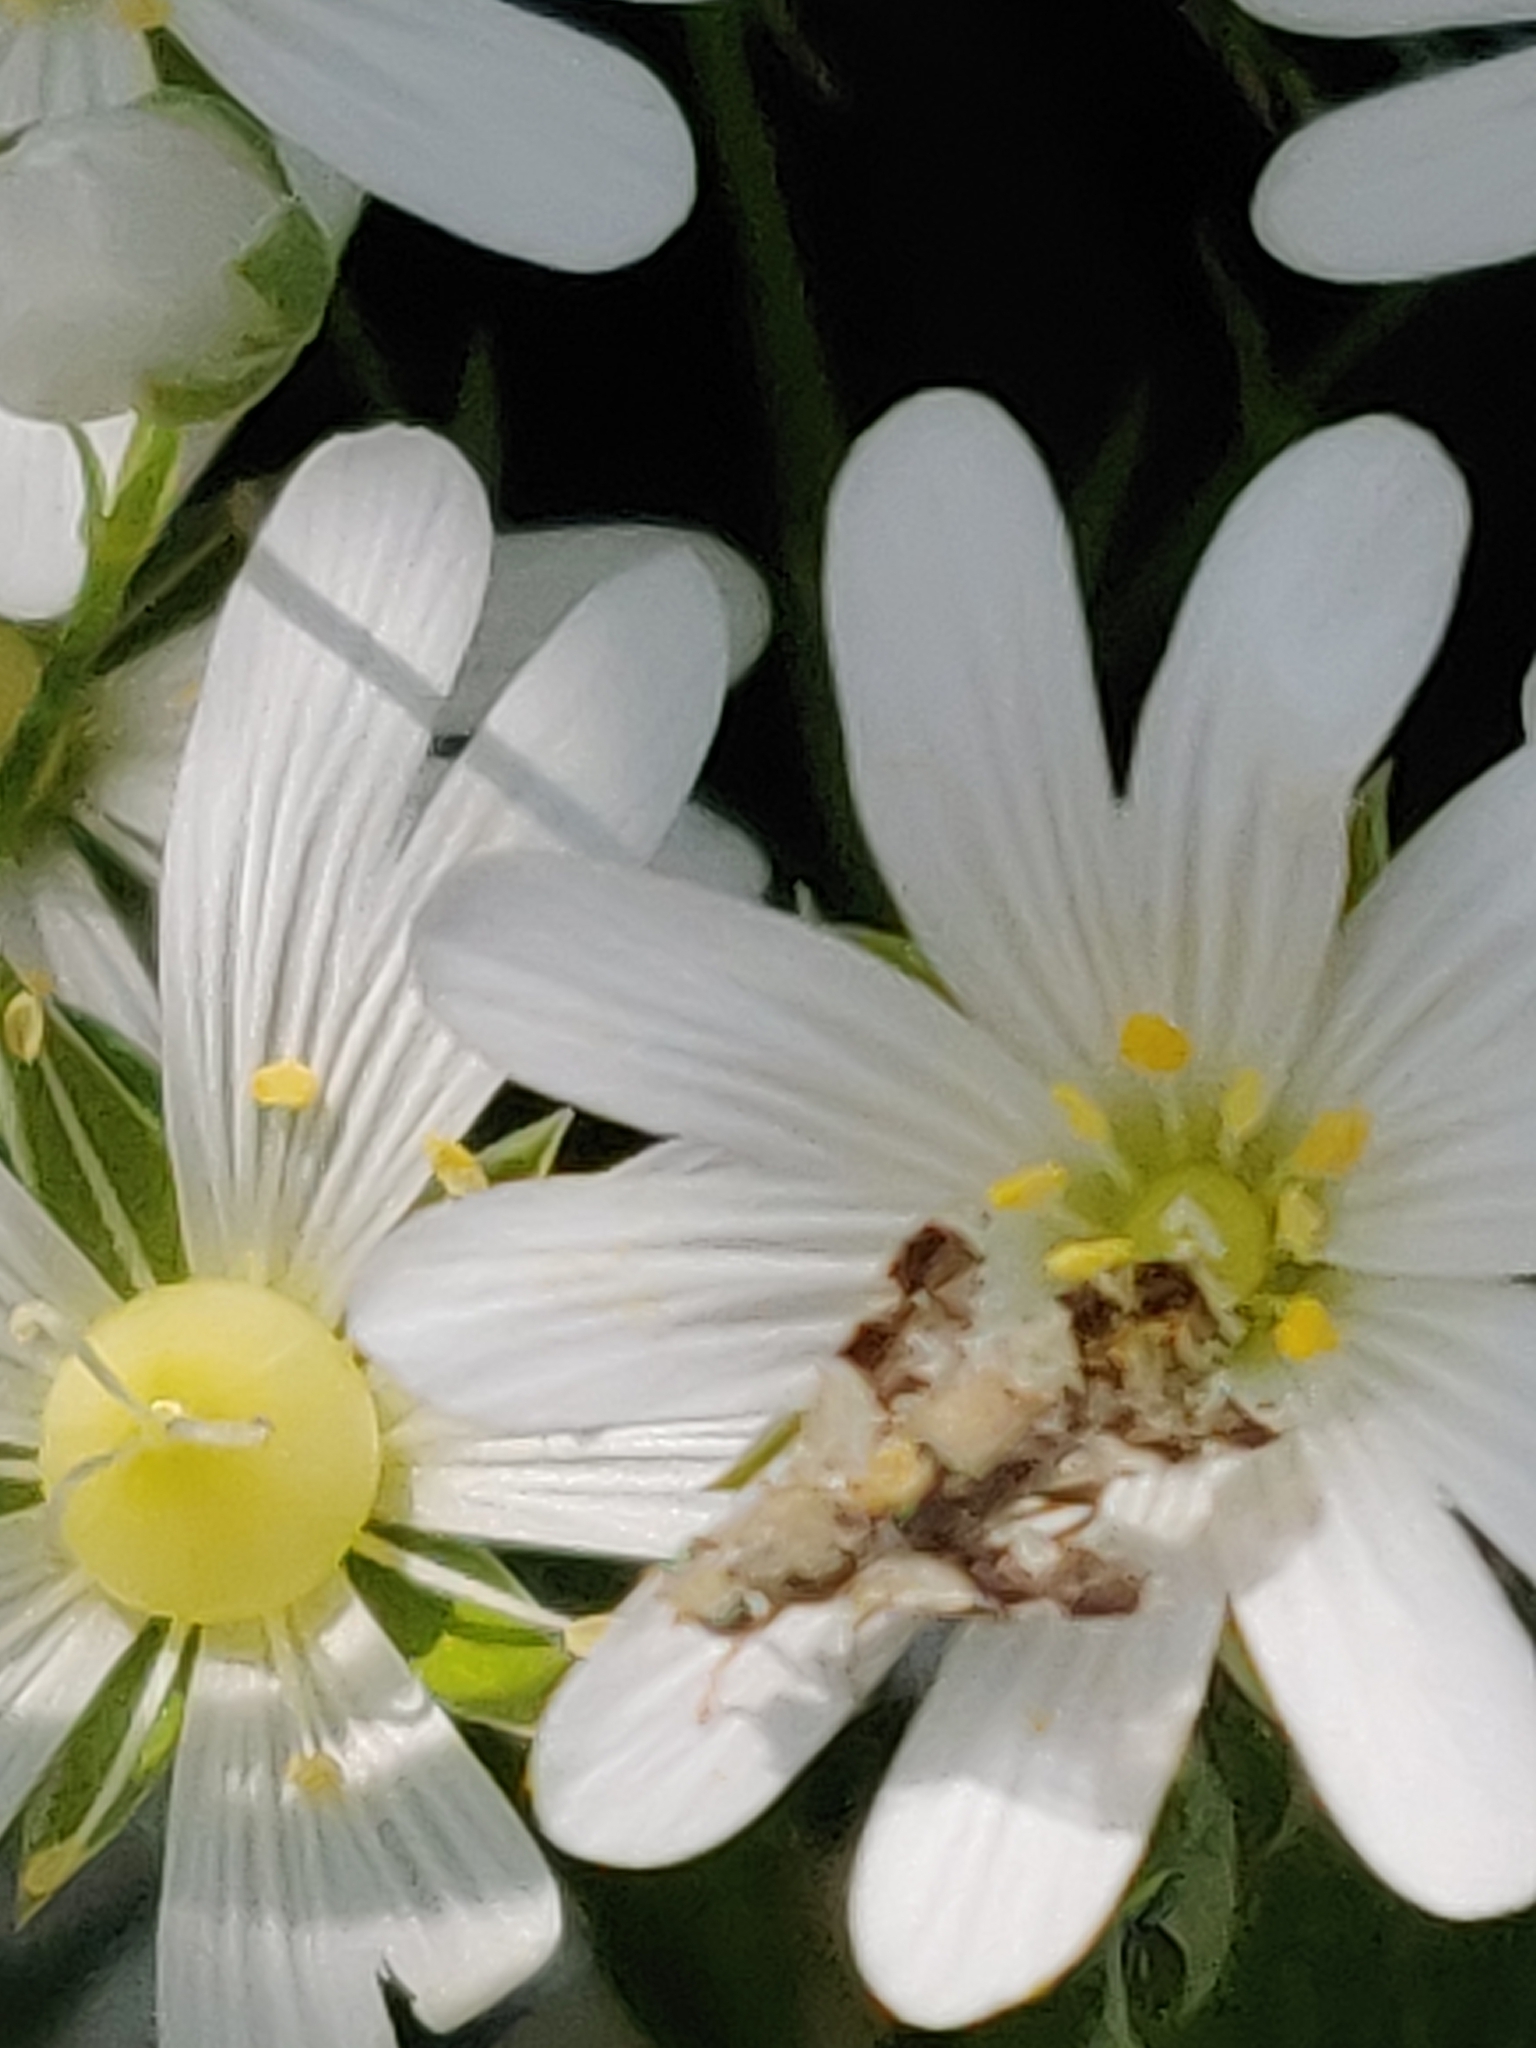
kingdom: Animalia
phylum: Arthropoda
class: Insecta
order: Diptera
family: Tephritidae
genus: Tephritis
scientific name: Tephritis formosa
